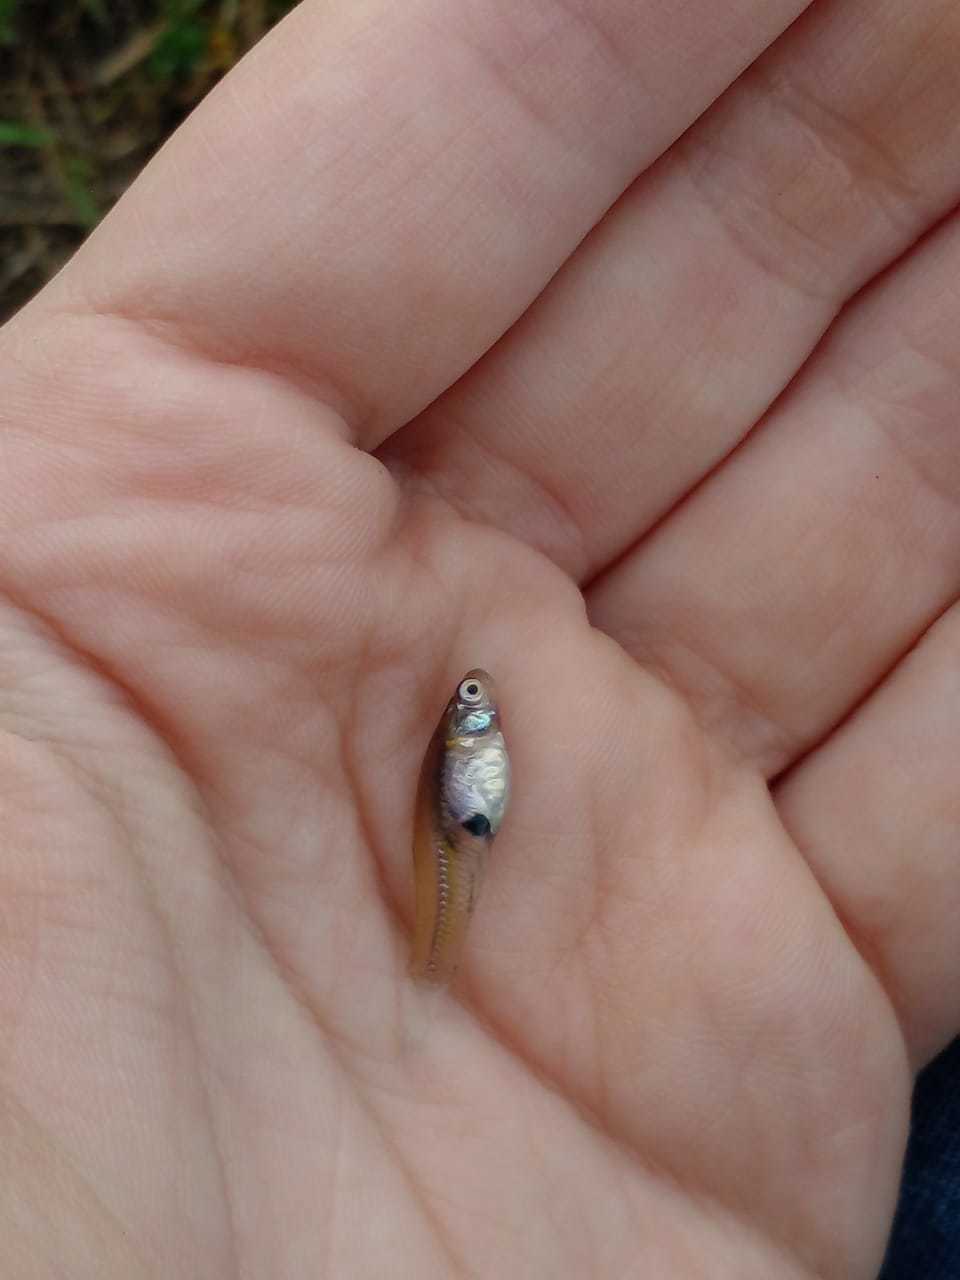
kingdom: Animalia
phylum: Chordata
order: Cyprinodontiformes
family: Poeciliidae
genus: Gambusia
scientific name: Gambusia affinis
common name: Mosquitofish
